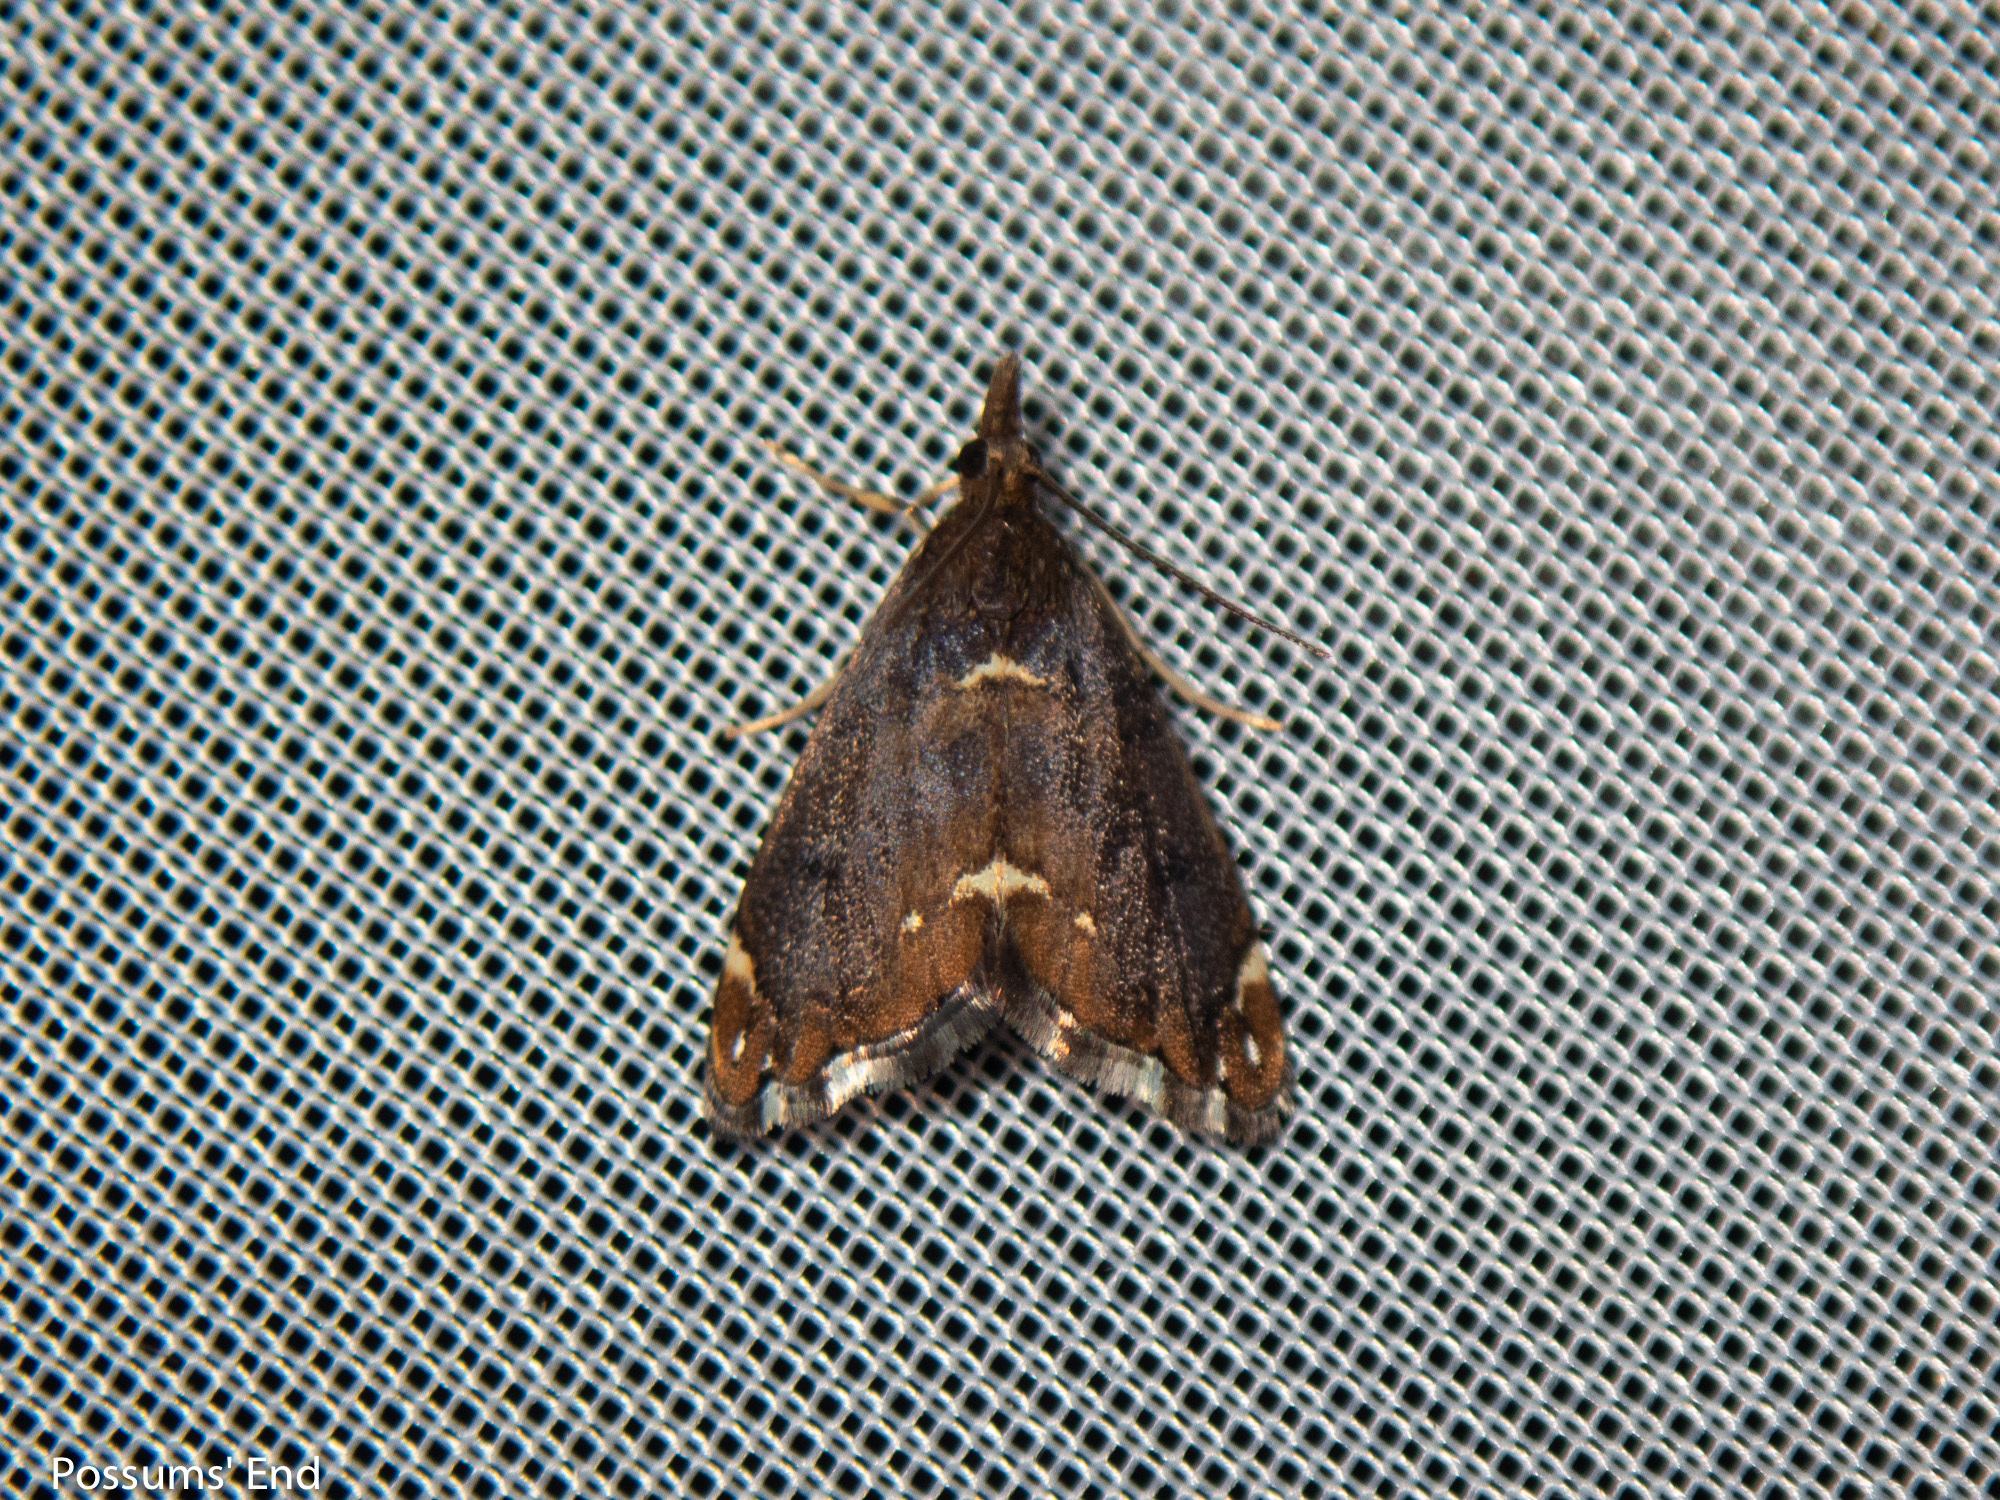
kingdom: Animalia
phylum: Arthropoda
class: Insecta
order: Lepidoptera
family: Crambidae
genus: Glaucocharis
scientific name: Glaucocharis pyrsophanes
